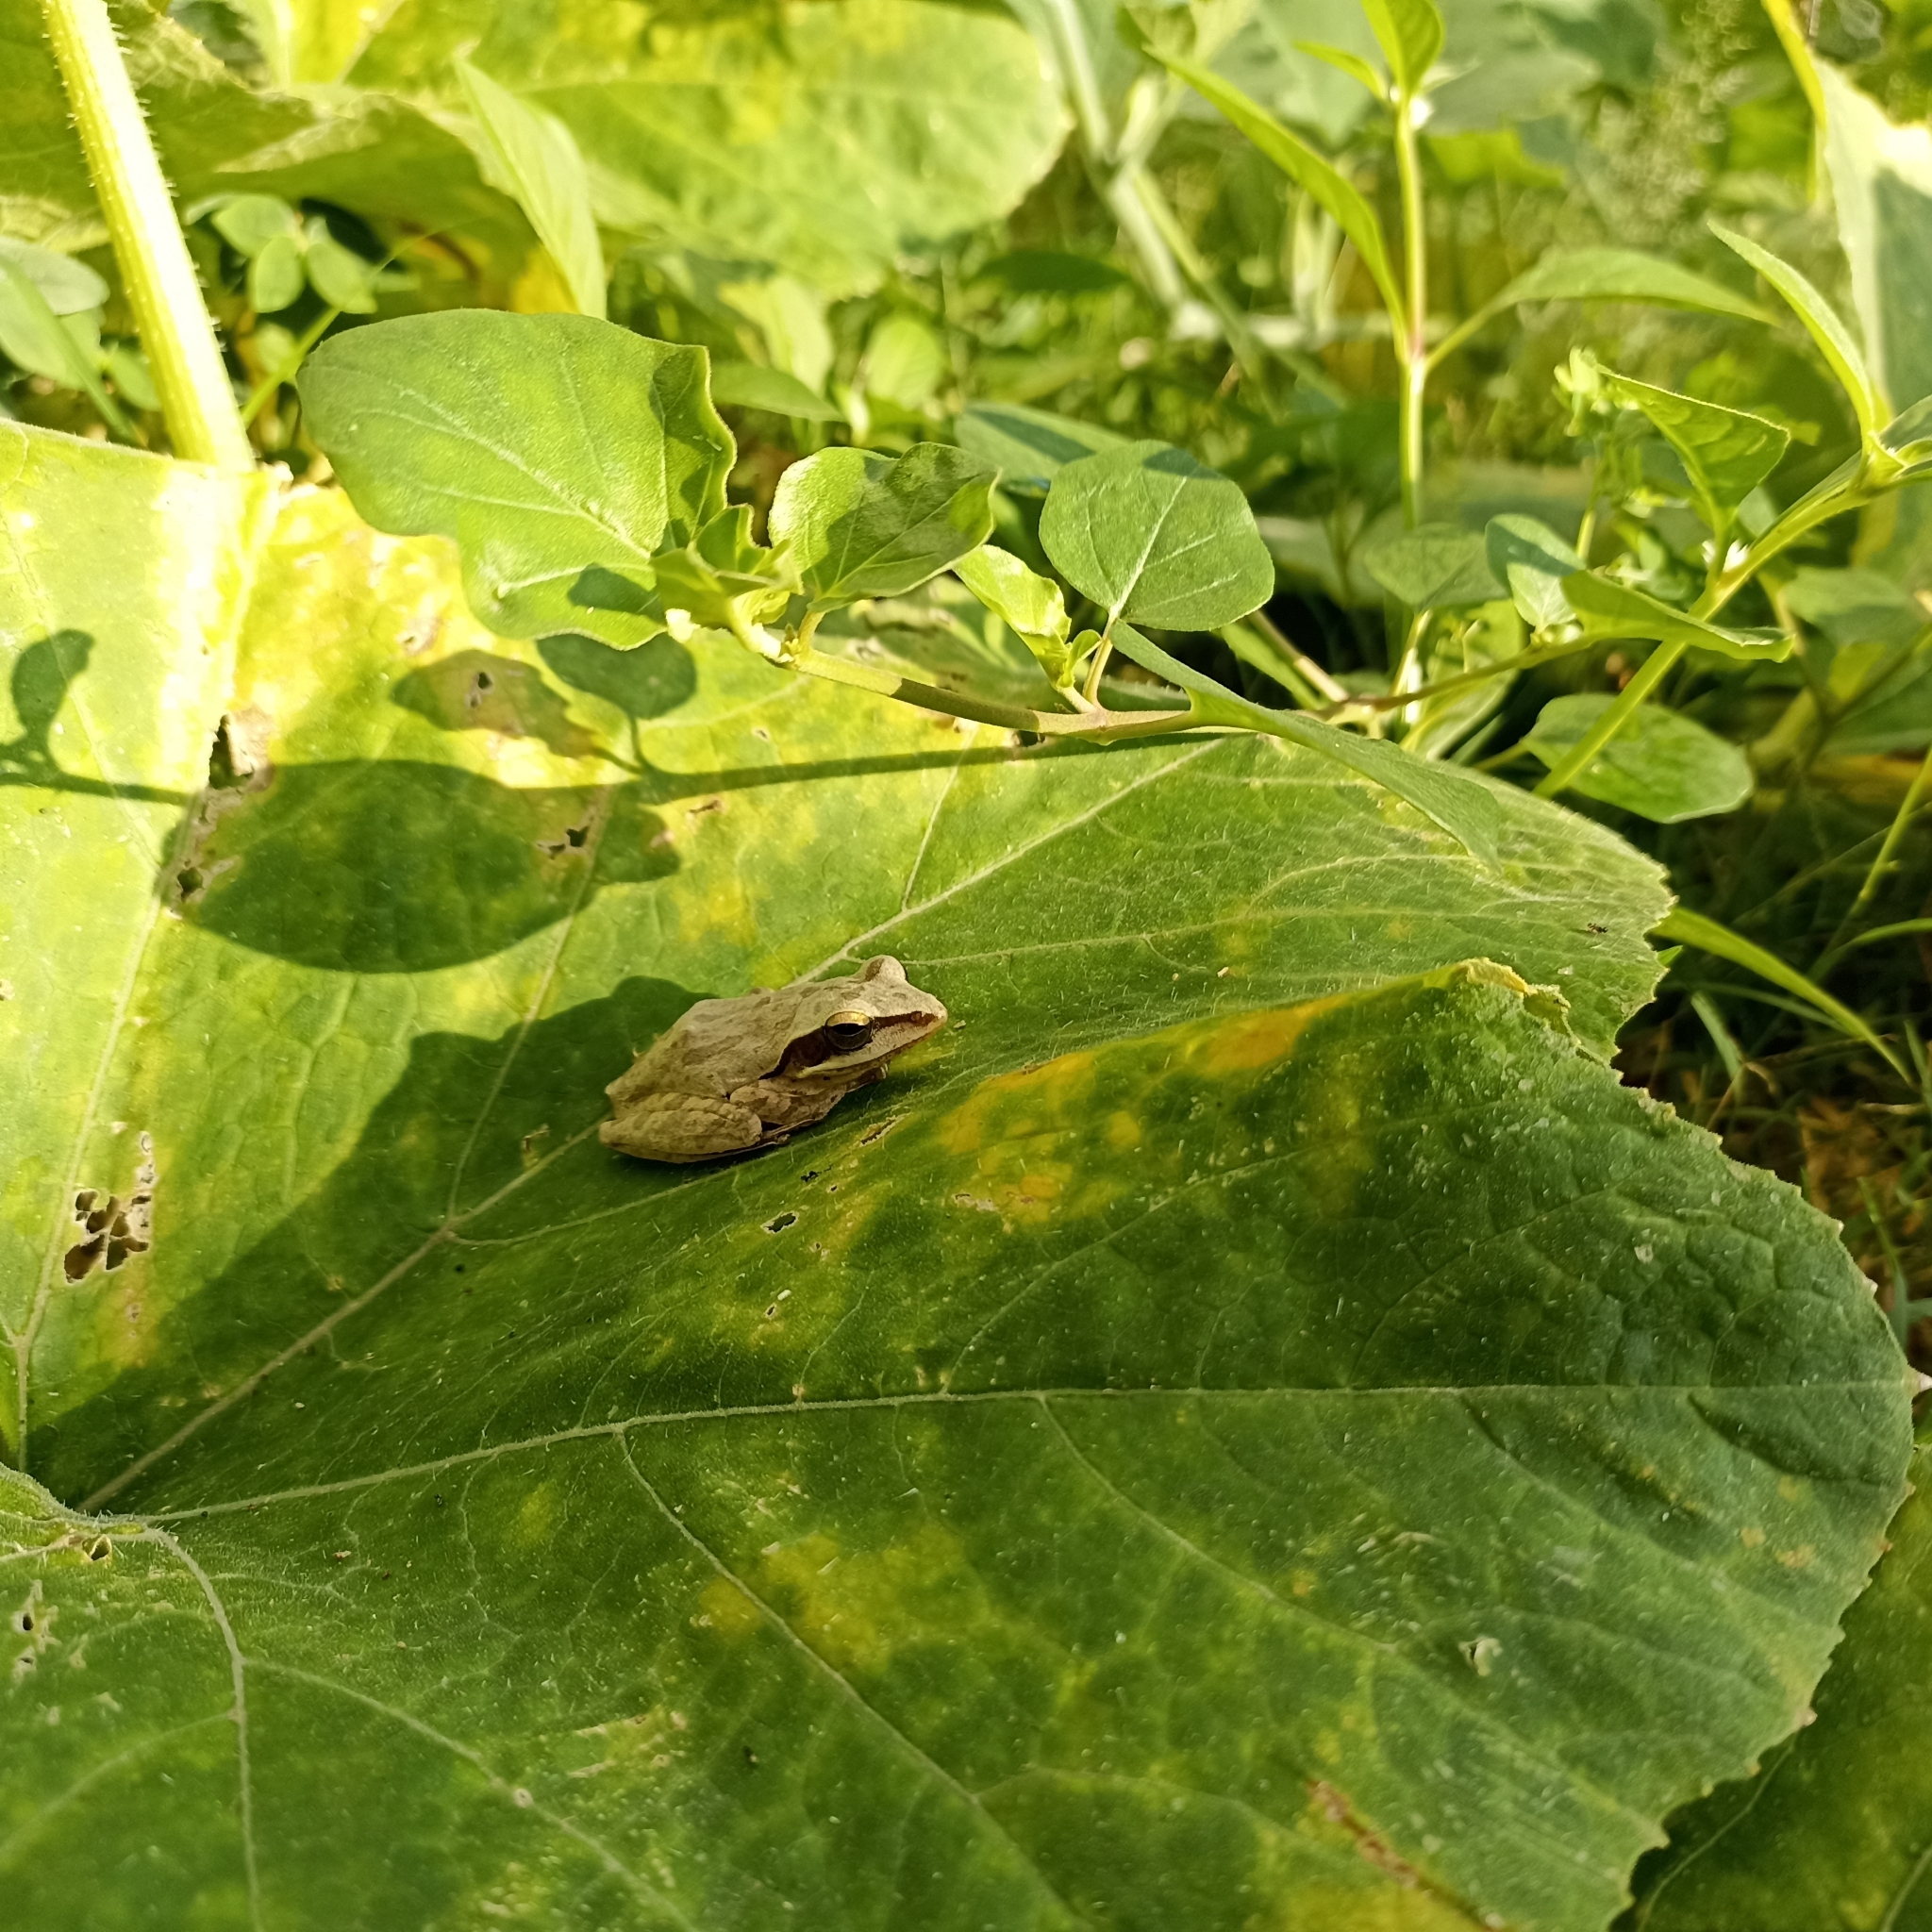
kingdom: Animalia
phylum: Chordata
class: Amphibia
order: Anura
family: Rhacophoridae
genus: Polypedates
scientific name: Polypedates maculatus
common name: Himalayan tree frog
